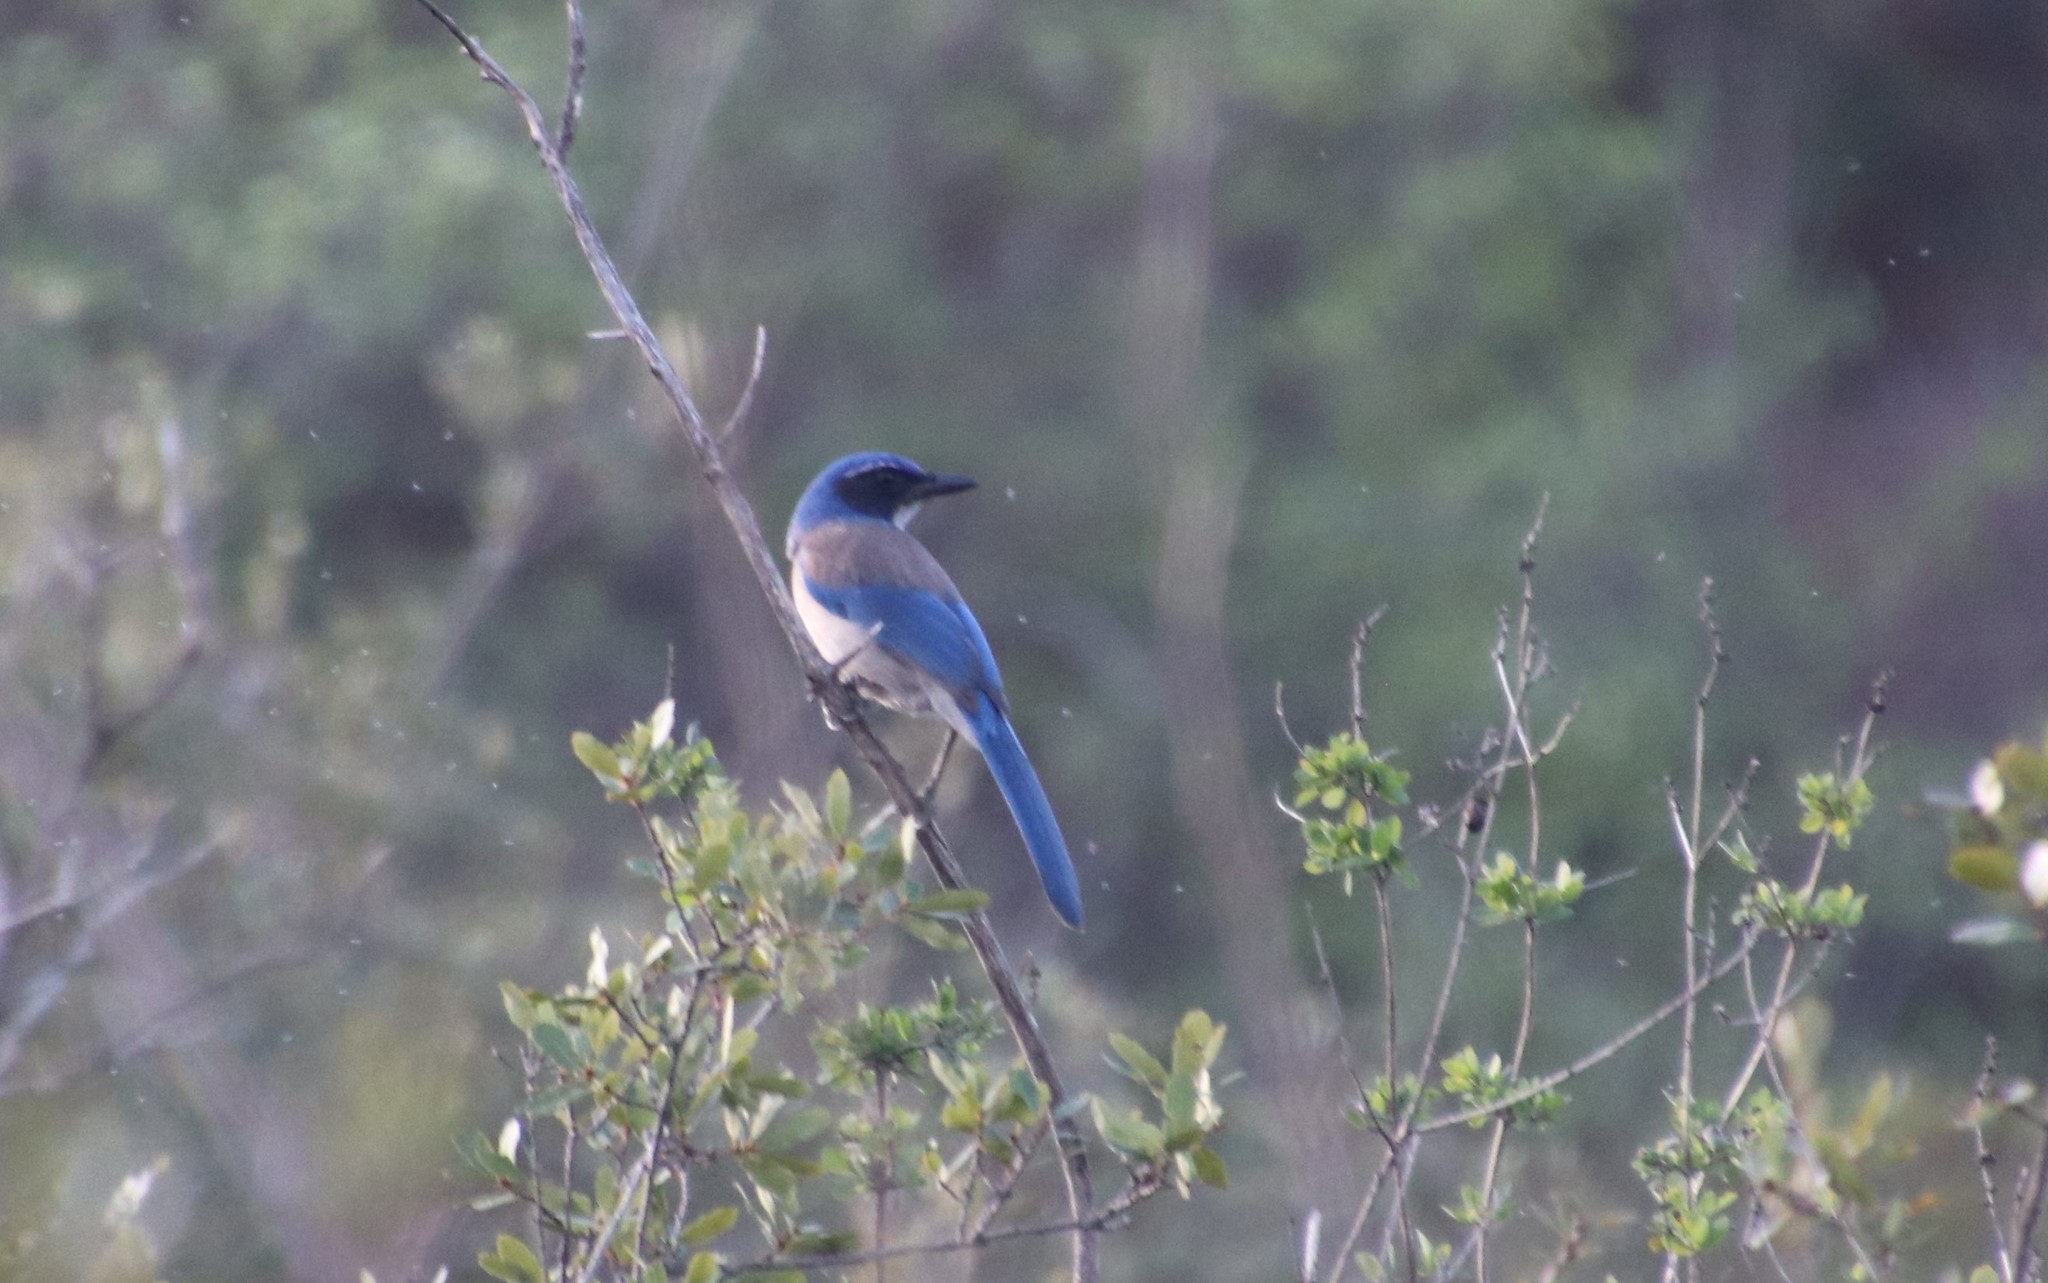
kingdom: Animalia
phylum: Chordata
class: Aves
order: Passeriformes
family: Corvidae
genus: Aphelocoma
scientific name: Aphelocoma californica
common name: California scrub-jay
